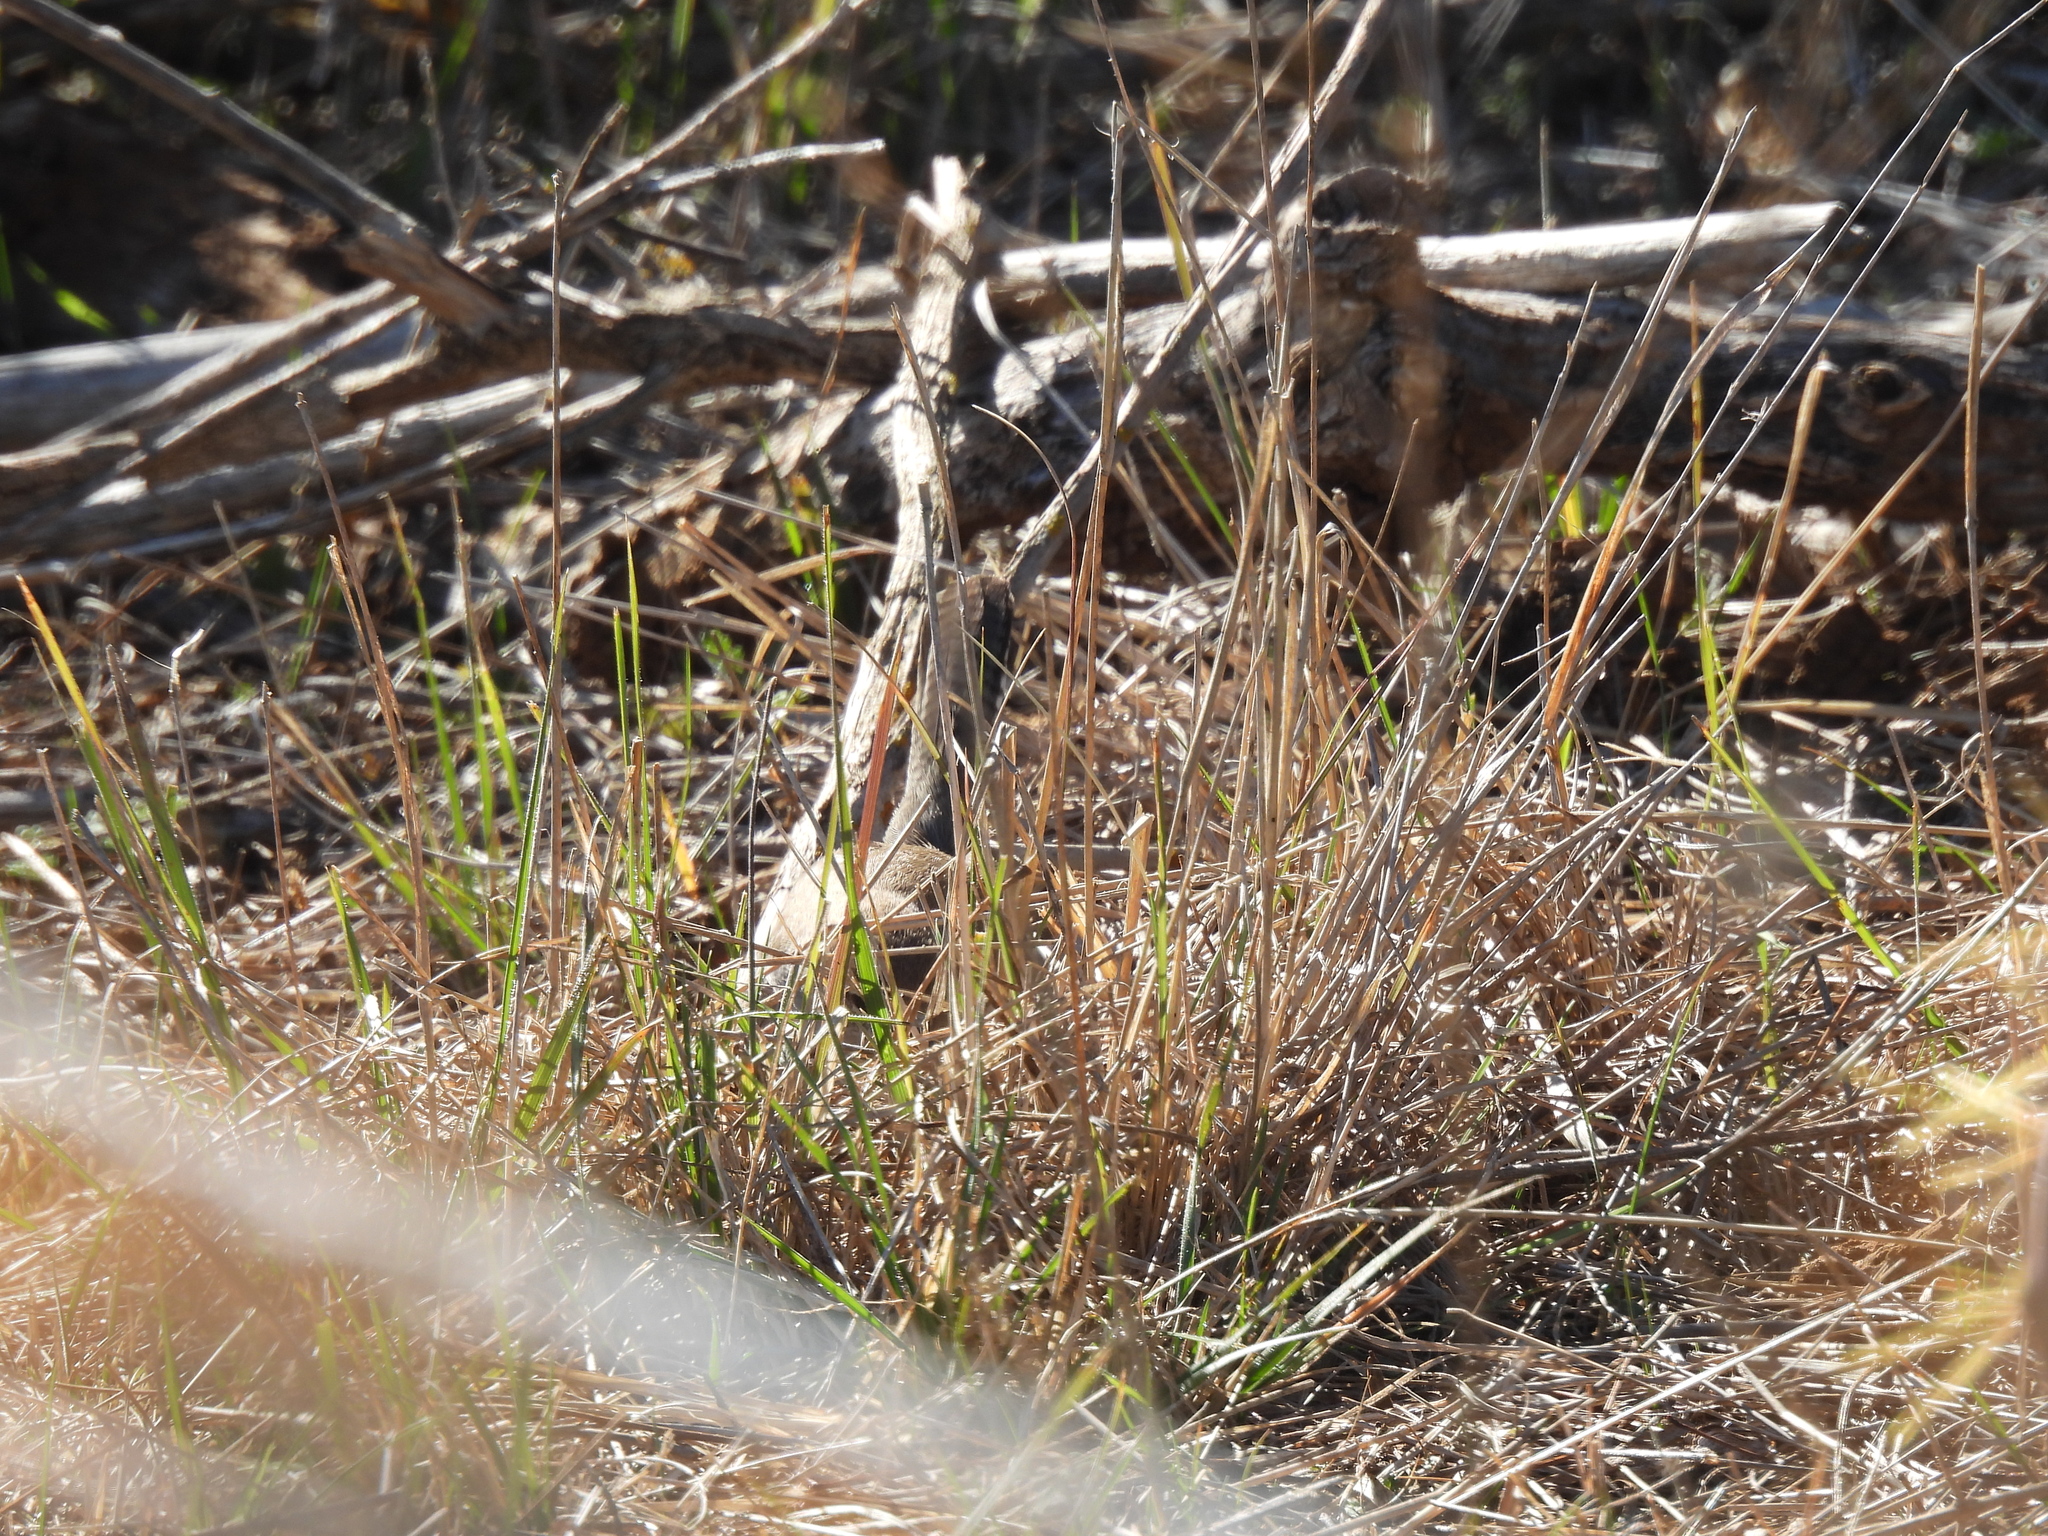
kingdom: Animalia
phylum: Chordata
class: Aves
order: Passeriformes
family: Troglodytidae
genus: Thryomanes
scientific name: Thryomanes bewickii
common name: Bewick's wren
